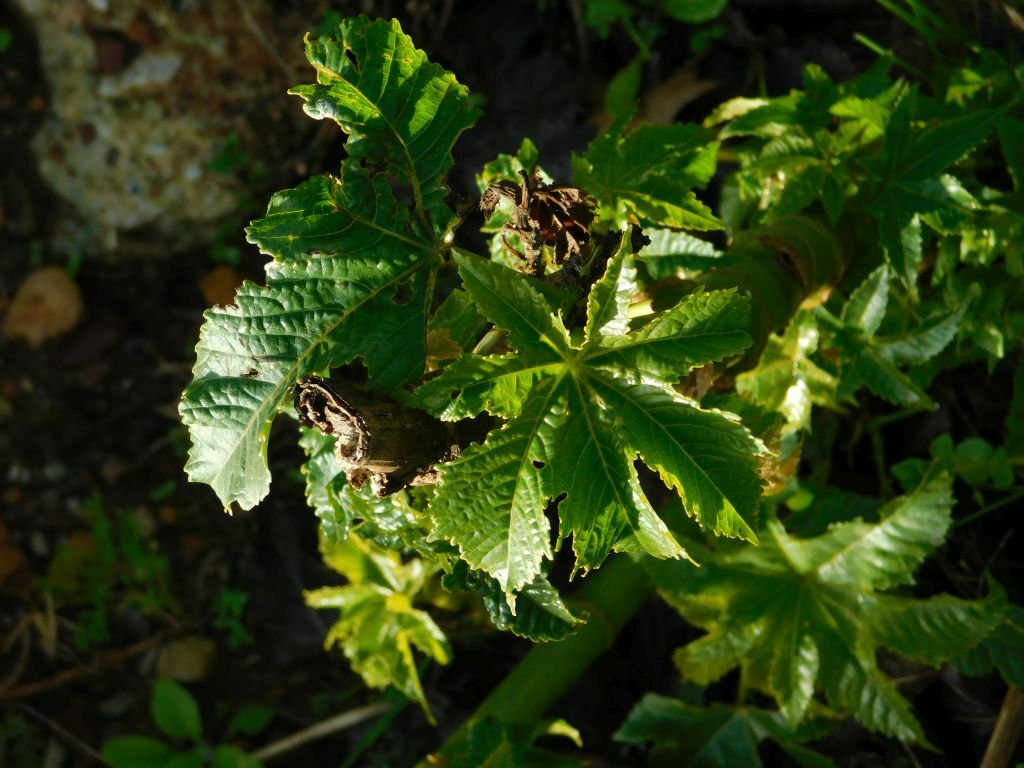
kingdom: Plantae
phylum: Tracheophyta
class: Magnoliopsida
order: Malpighiales
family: Euphorbiaceae
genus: Ricinus
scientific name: Ricinus communis
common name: Castor-oil-plant
